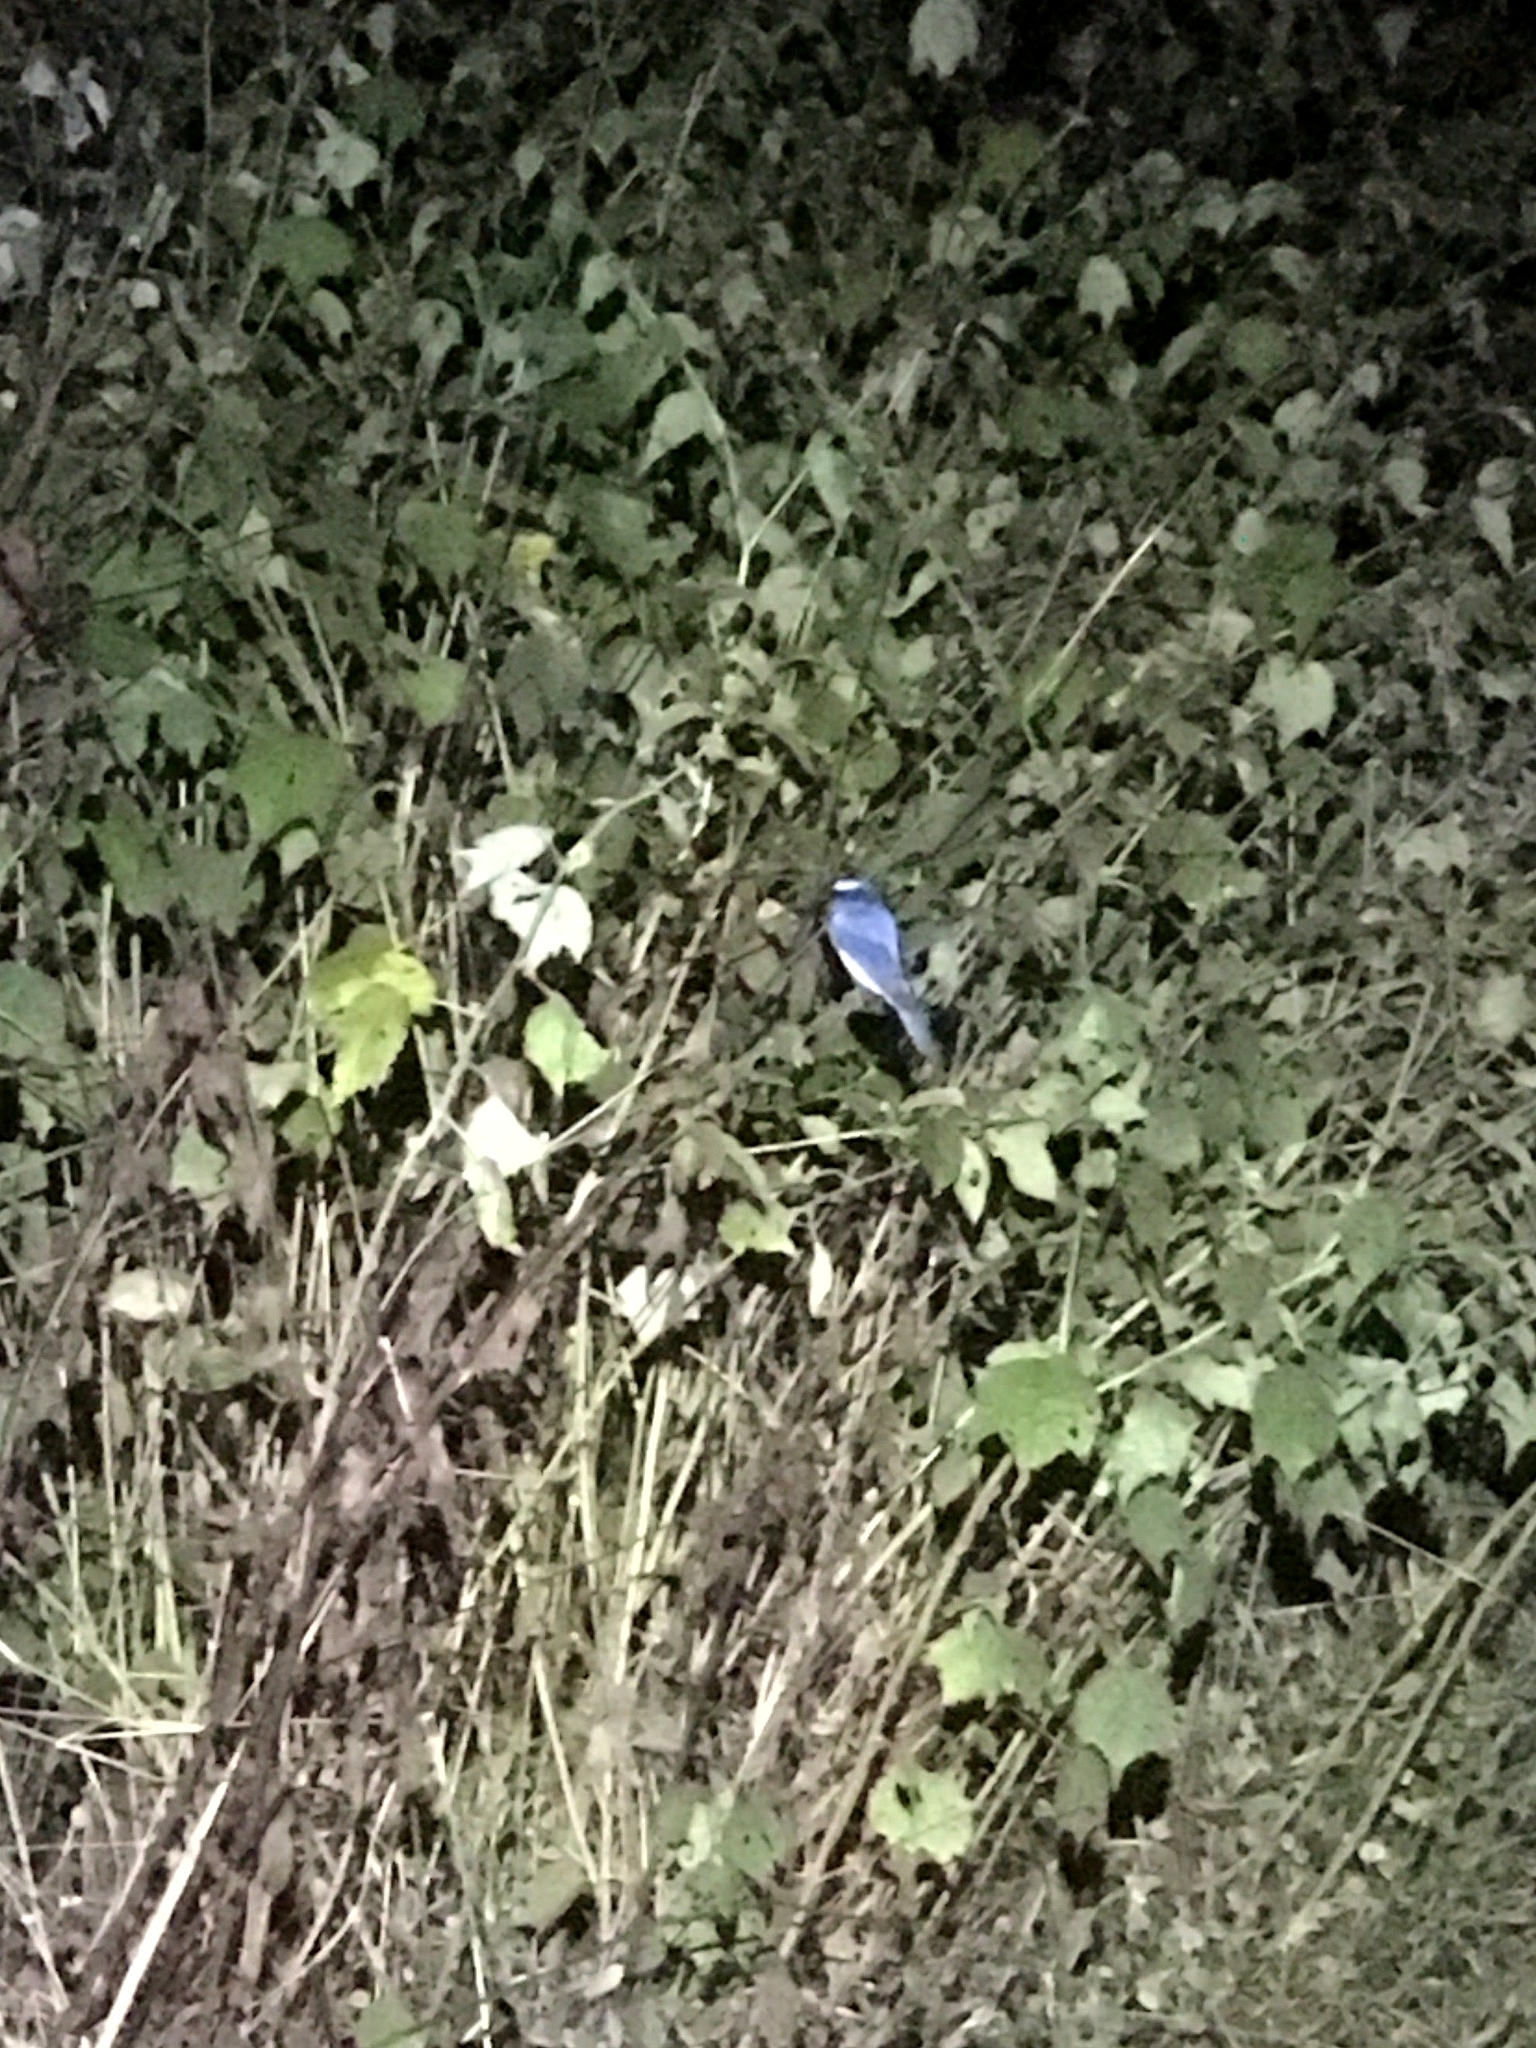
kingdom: Animalia
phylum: Chordata
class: Aves
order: Passeriformes
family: Muscicapidae
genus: Cyornis
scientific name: Cyornis tickelliae
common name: Tickell's blue flycatcher
